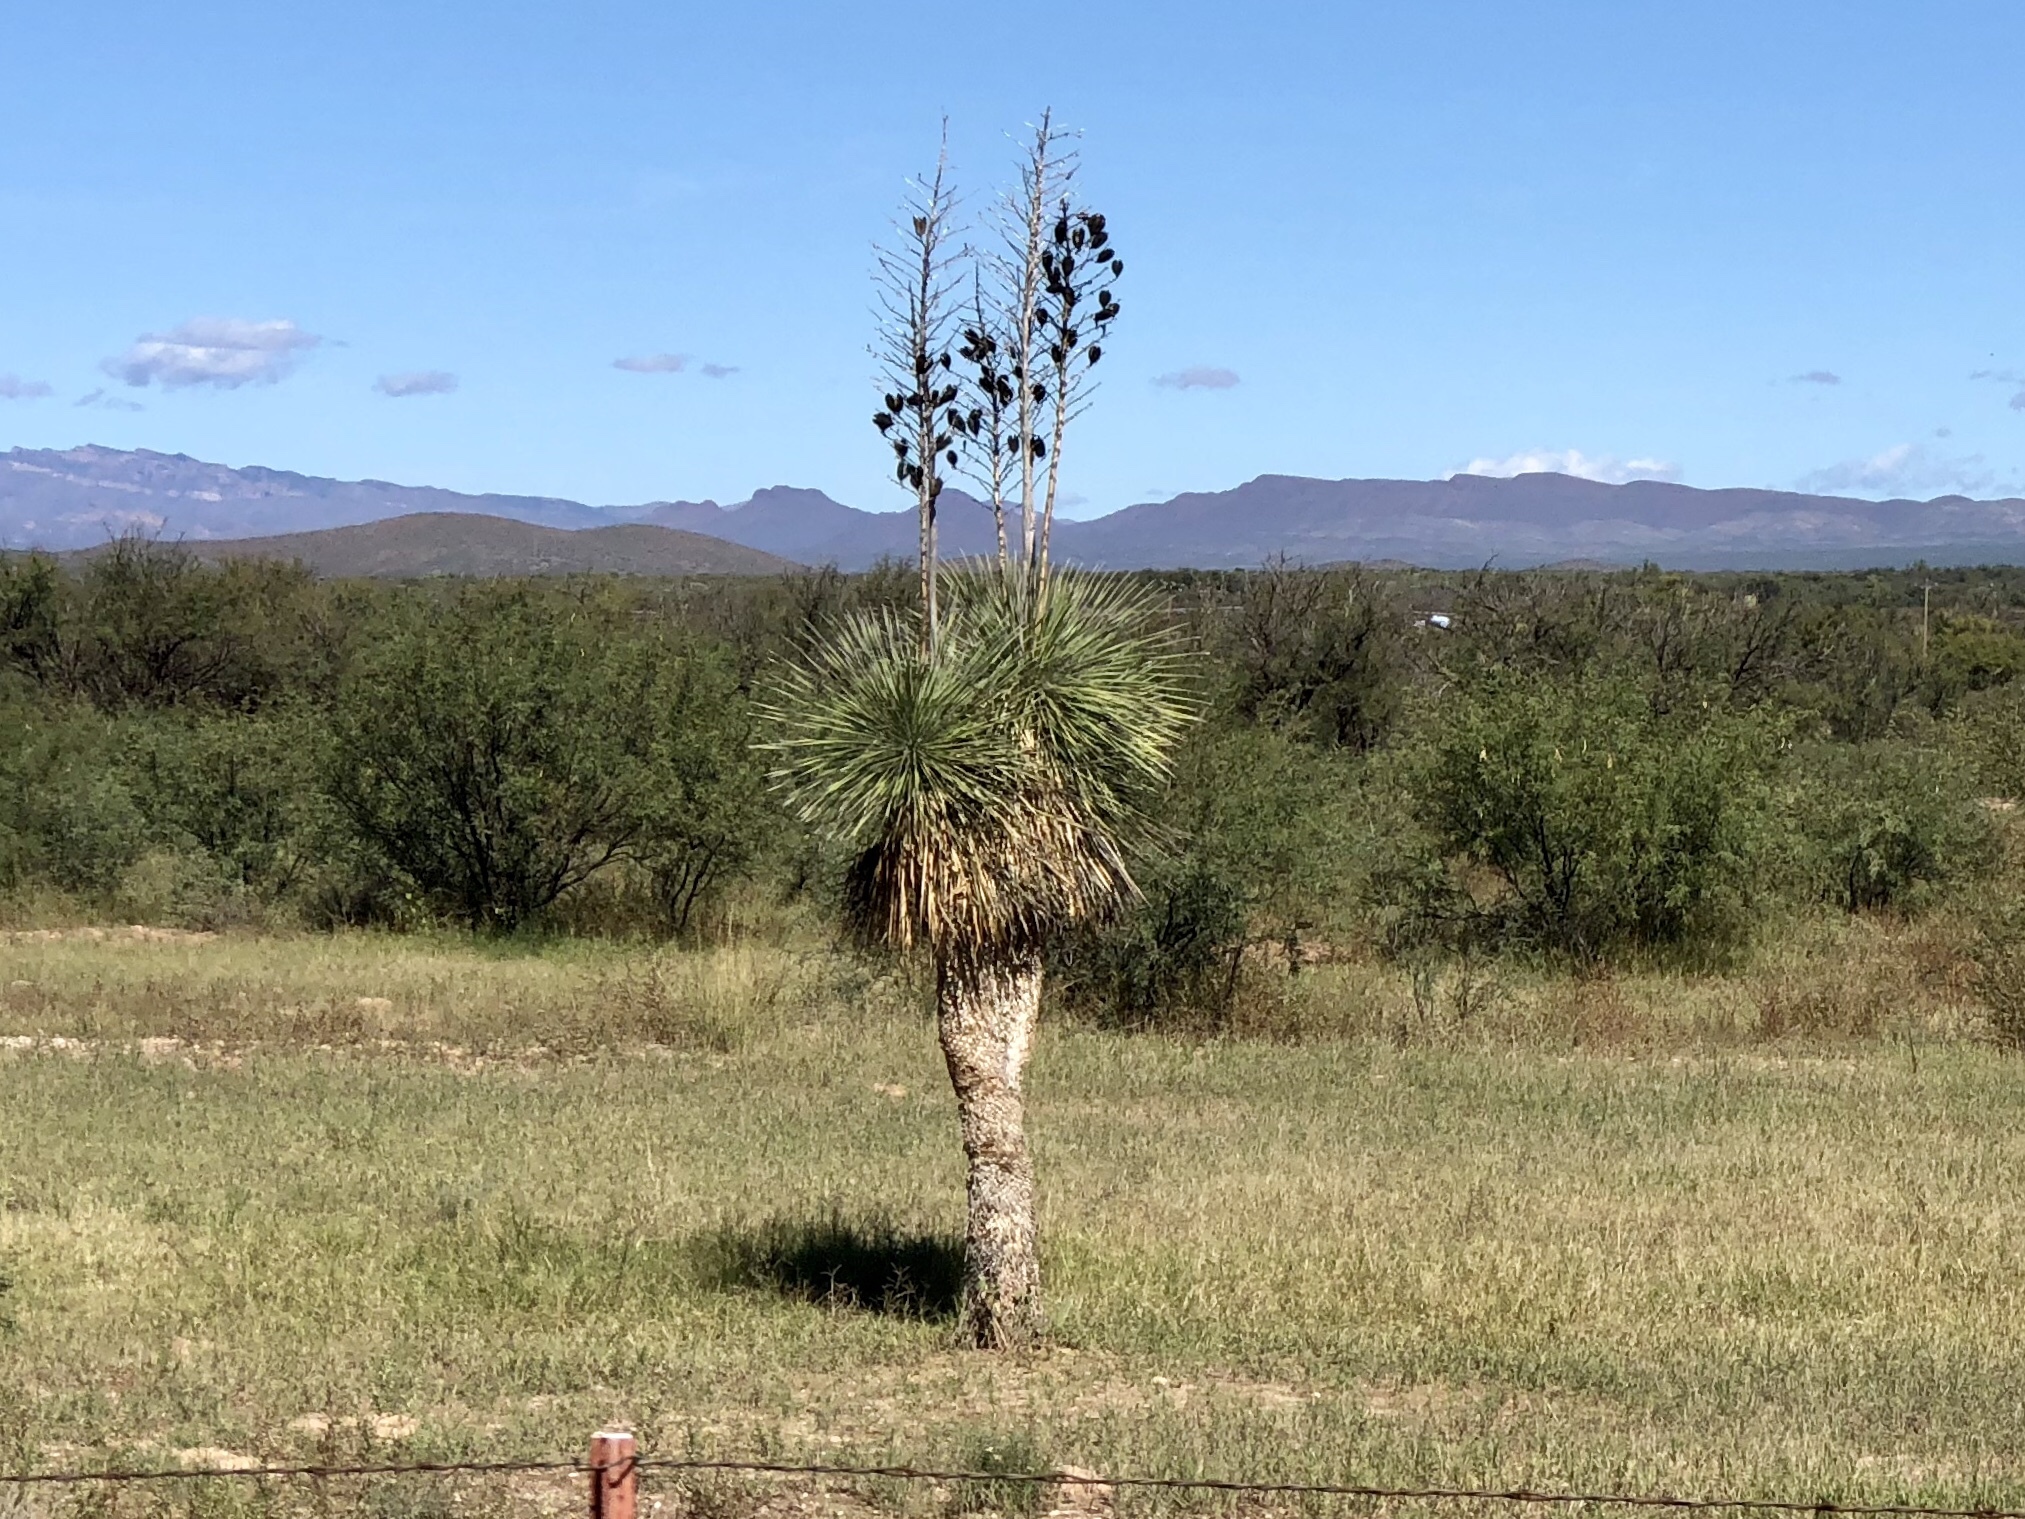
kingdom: Plantae
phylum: Tracheophyta
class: Liliopsida
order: Asparagales
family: Asparagaceae
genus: Yucca
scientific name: Yucca elata
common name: Palmella
